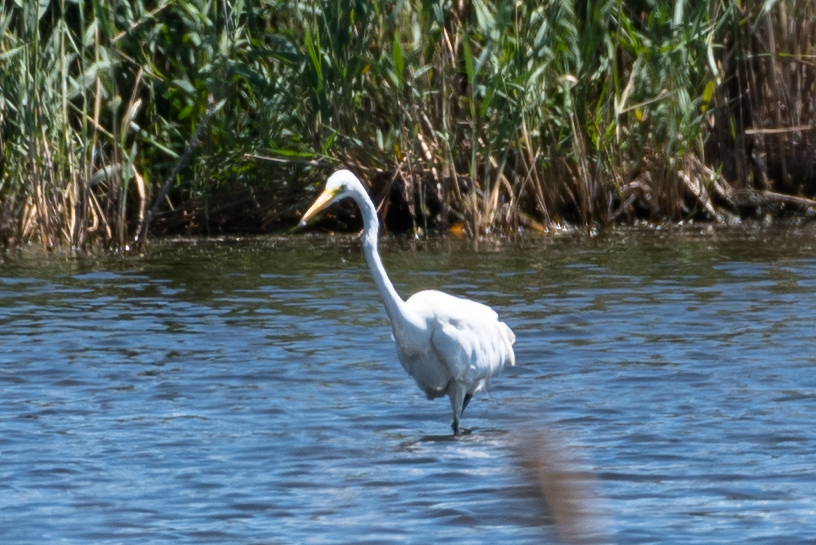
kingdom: Animalia
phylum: Chordata
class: Aves
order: Pelecaniformes
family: Ardeidae
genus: Ardea
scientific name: Ardea alba
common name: Great egret
